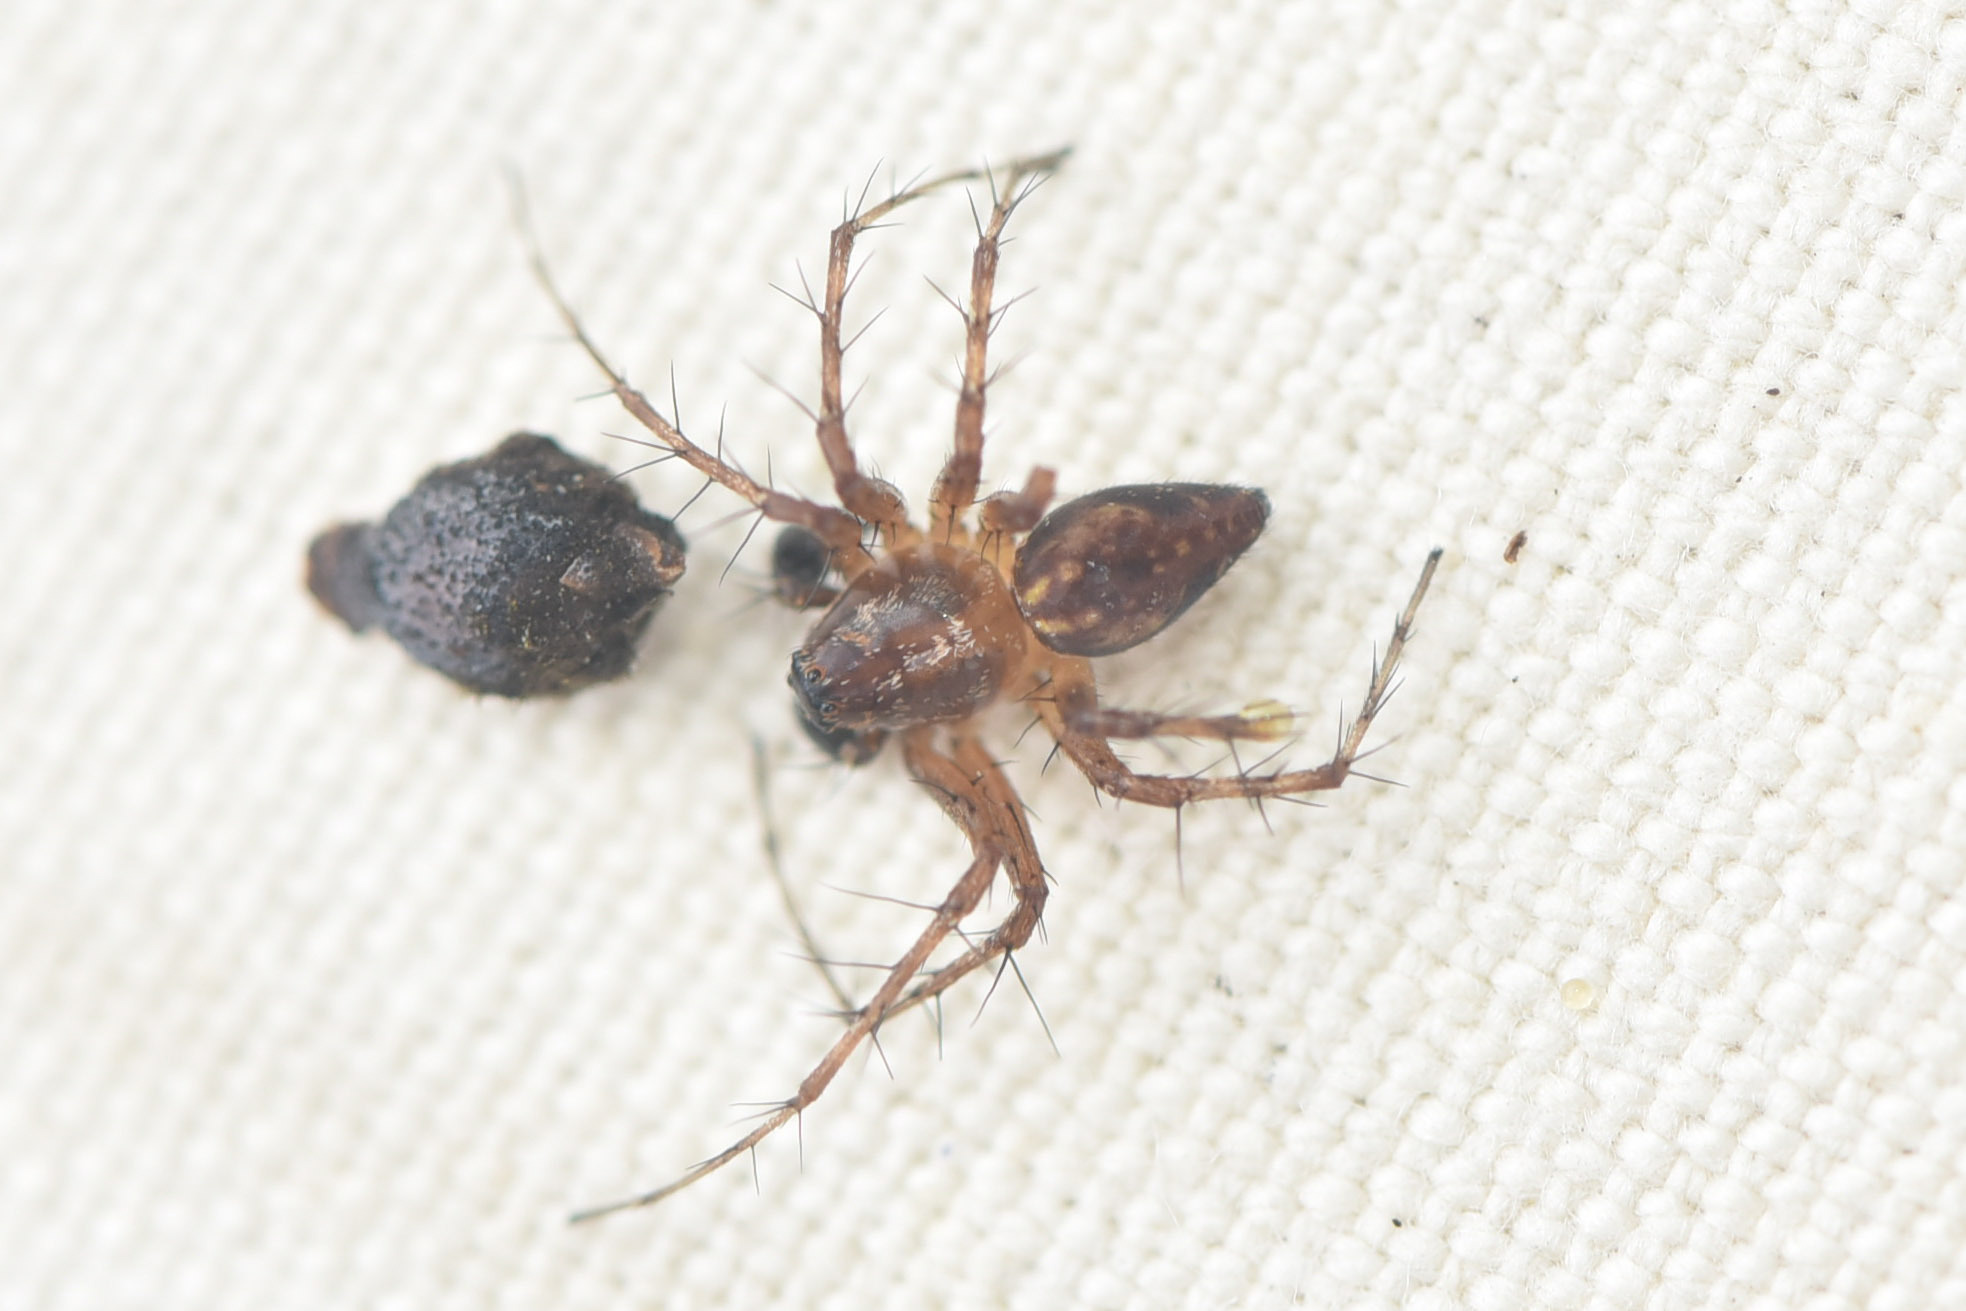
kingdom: Animalia
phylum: Arthropoda
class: Arachnida
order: Araneae
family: Oxyopidae
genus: Oxyopes
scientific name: Oxyopes scalaris
